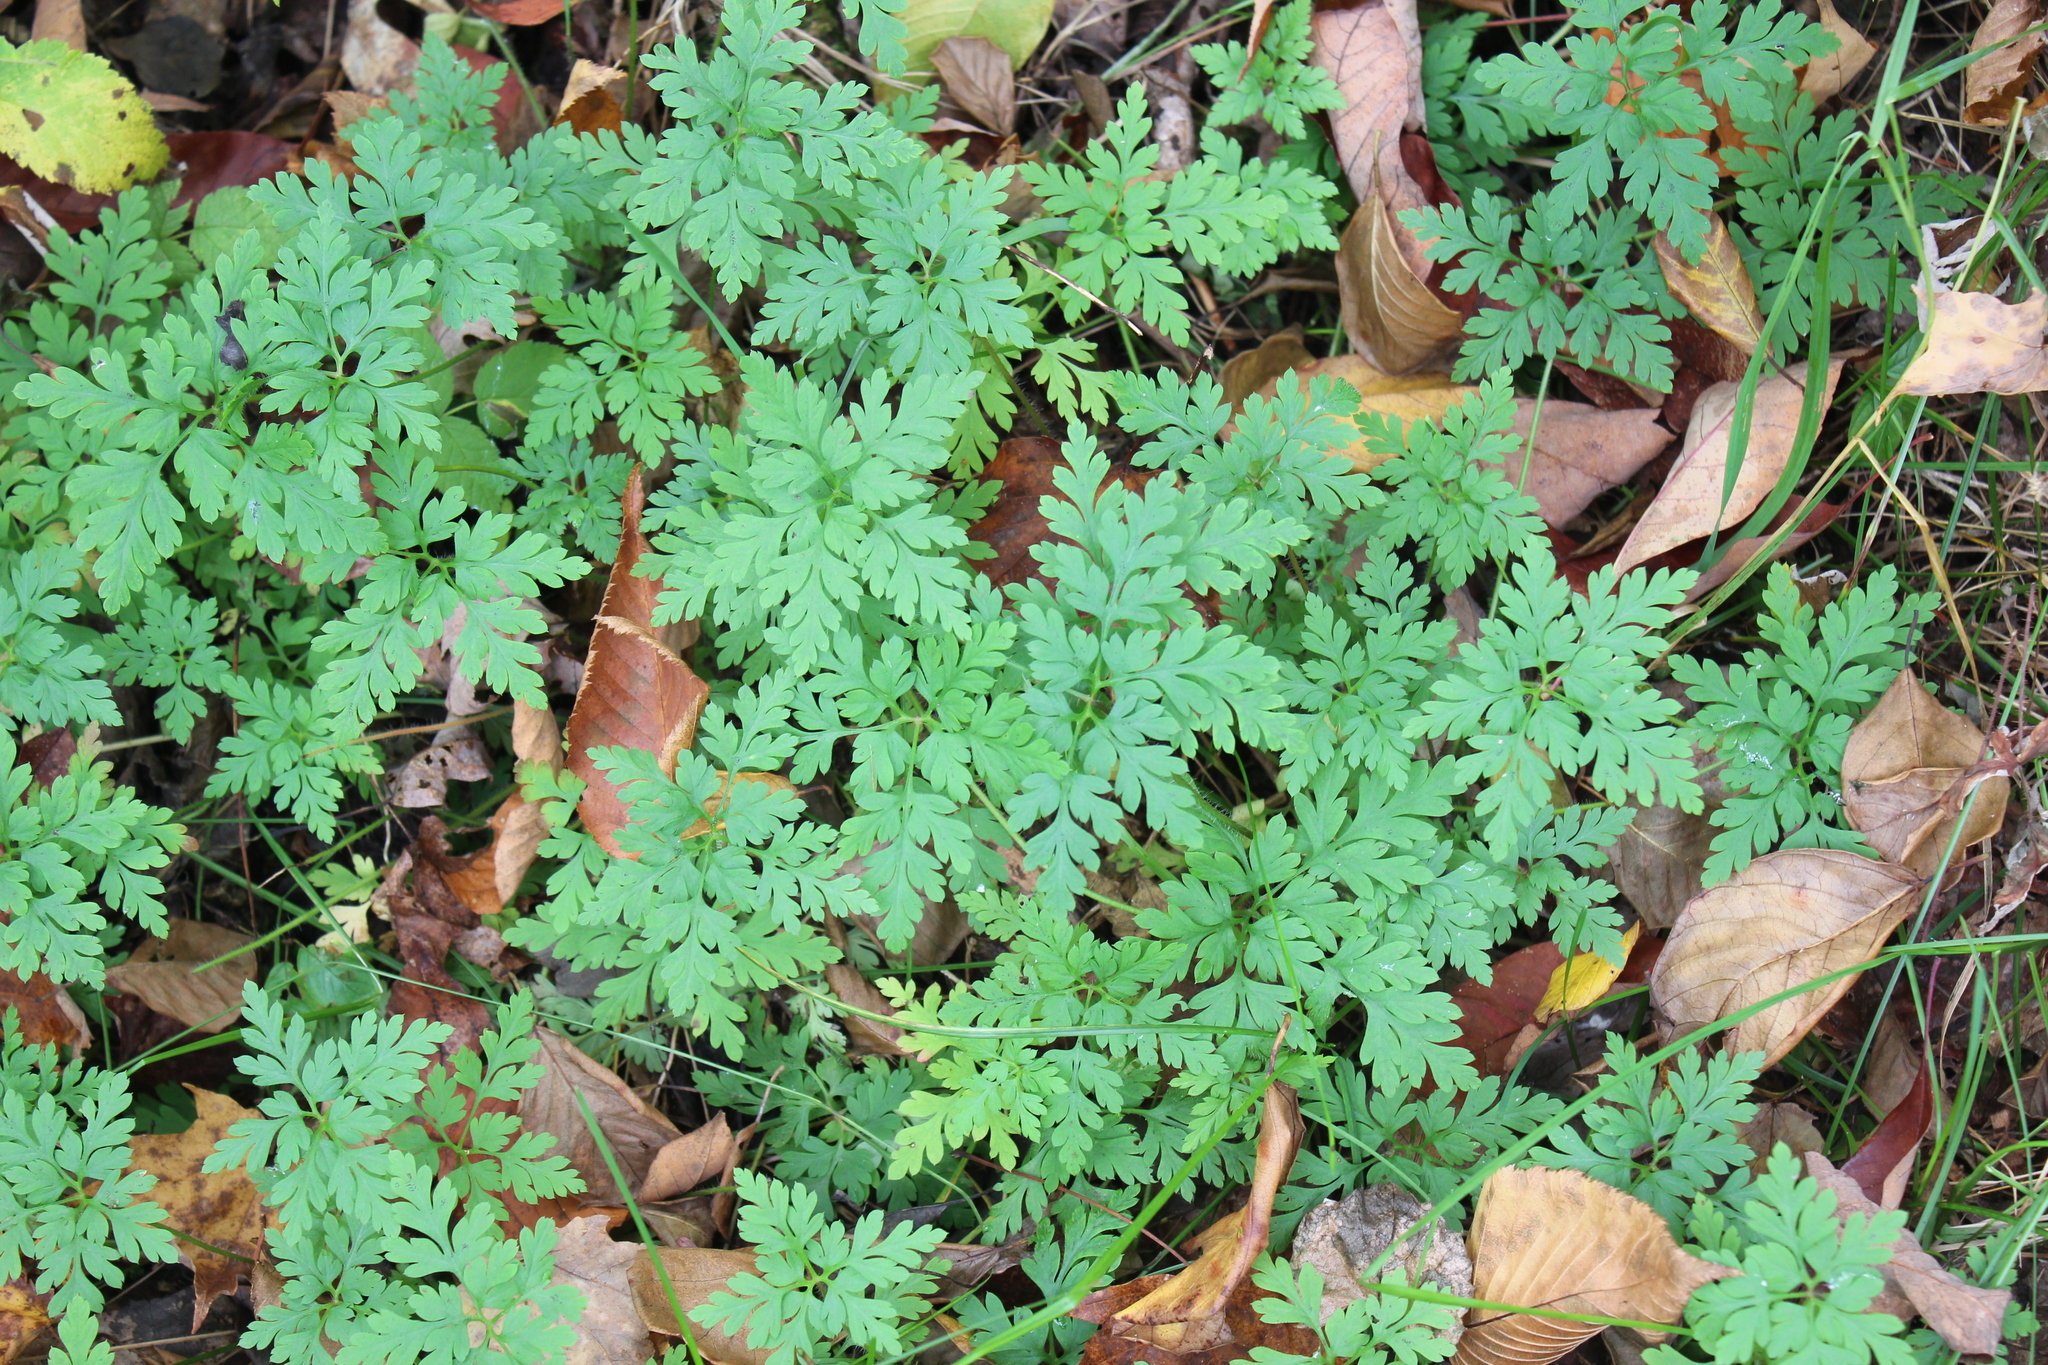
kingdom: Plantae
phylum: Tracheophyta
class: Magnoliopsida
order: Geraniales
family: Geraniaceae
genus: Geranium
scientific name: Geranium robertianum
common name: Herb-robert
